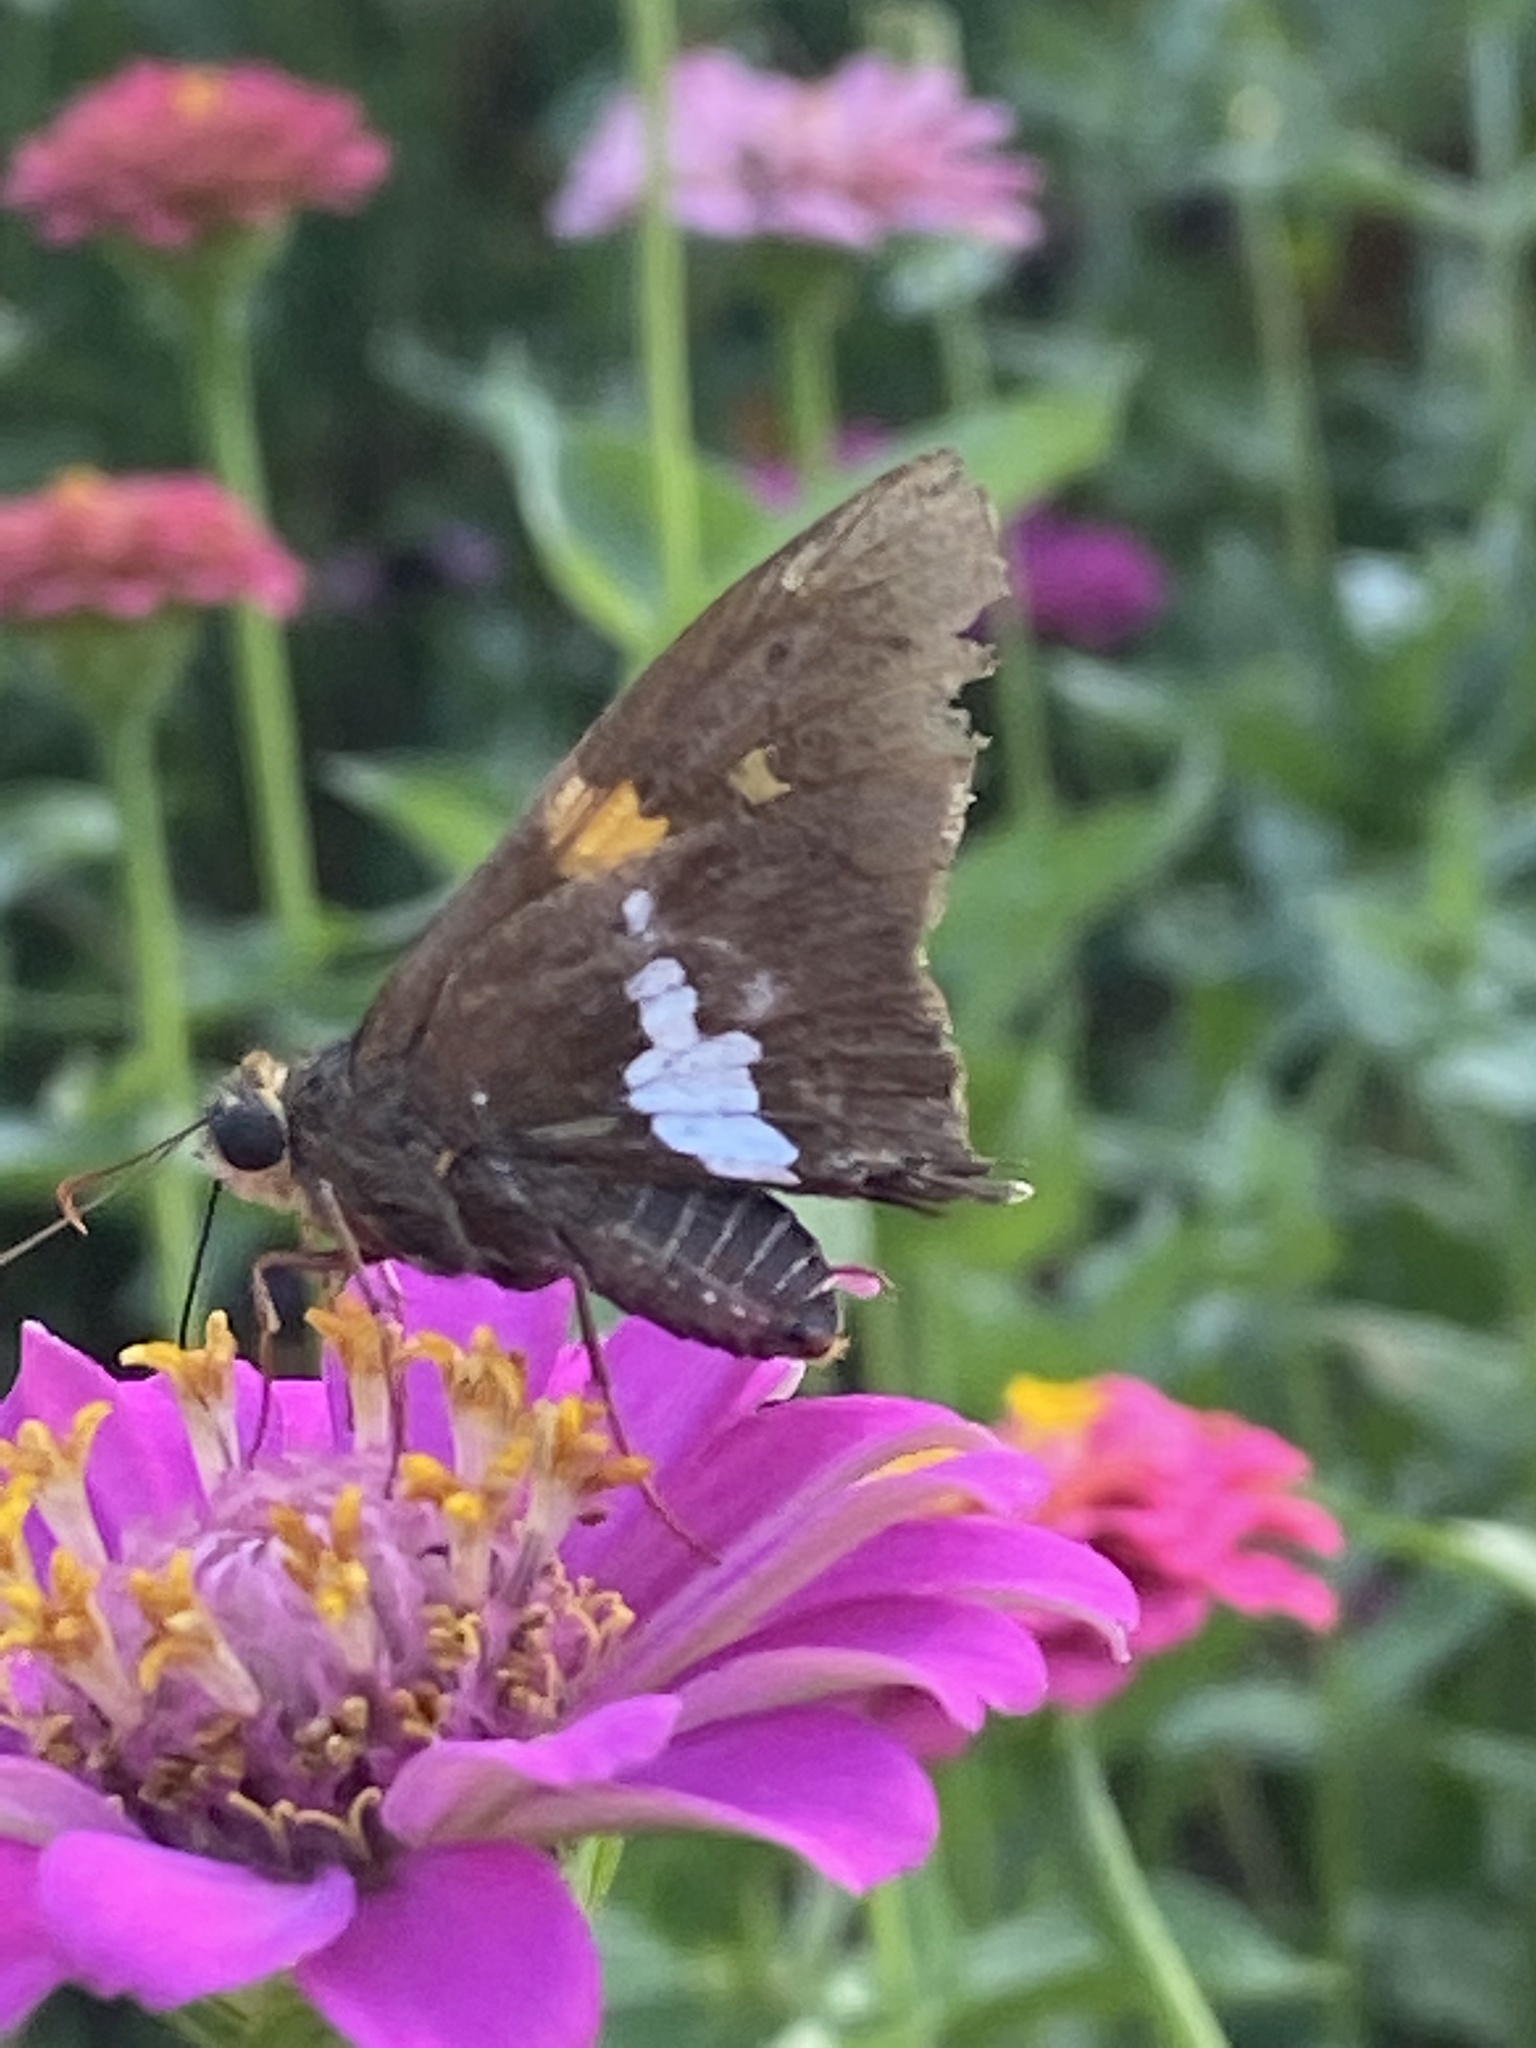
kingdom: Animalia
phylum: Arthropoda
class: Insecta
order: Lepidoptera
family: Hesperiidae
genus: Epargyreus
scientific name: Epargyreus clarus
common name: Silver-spotted skipper
